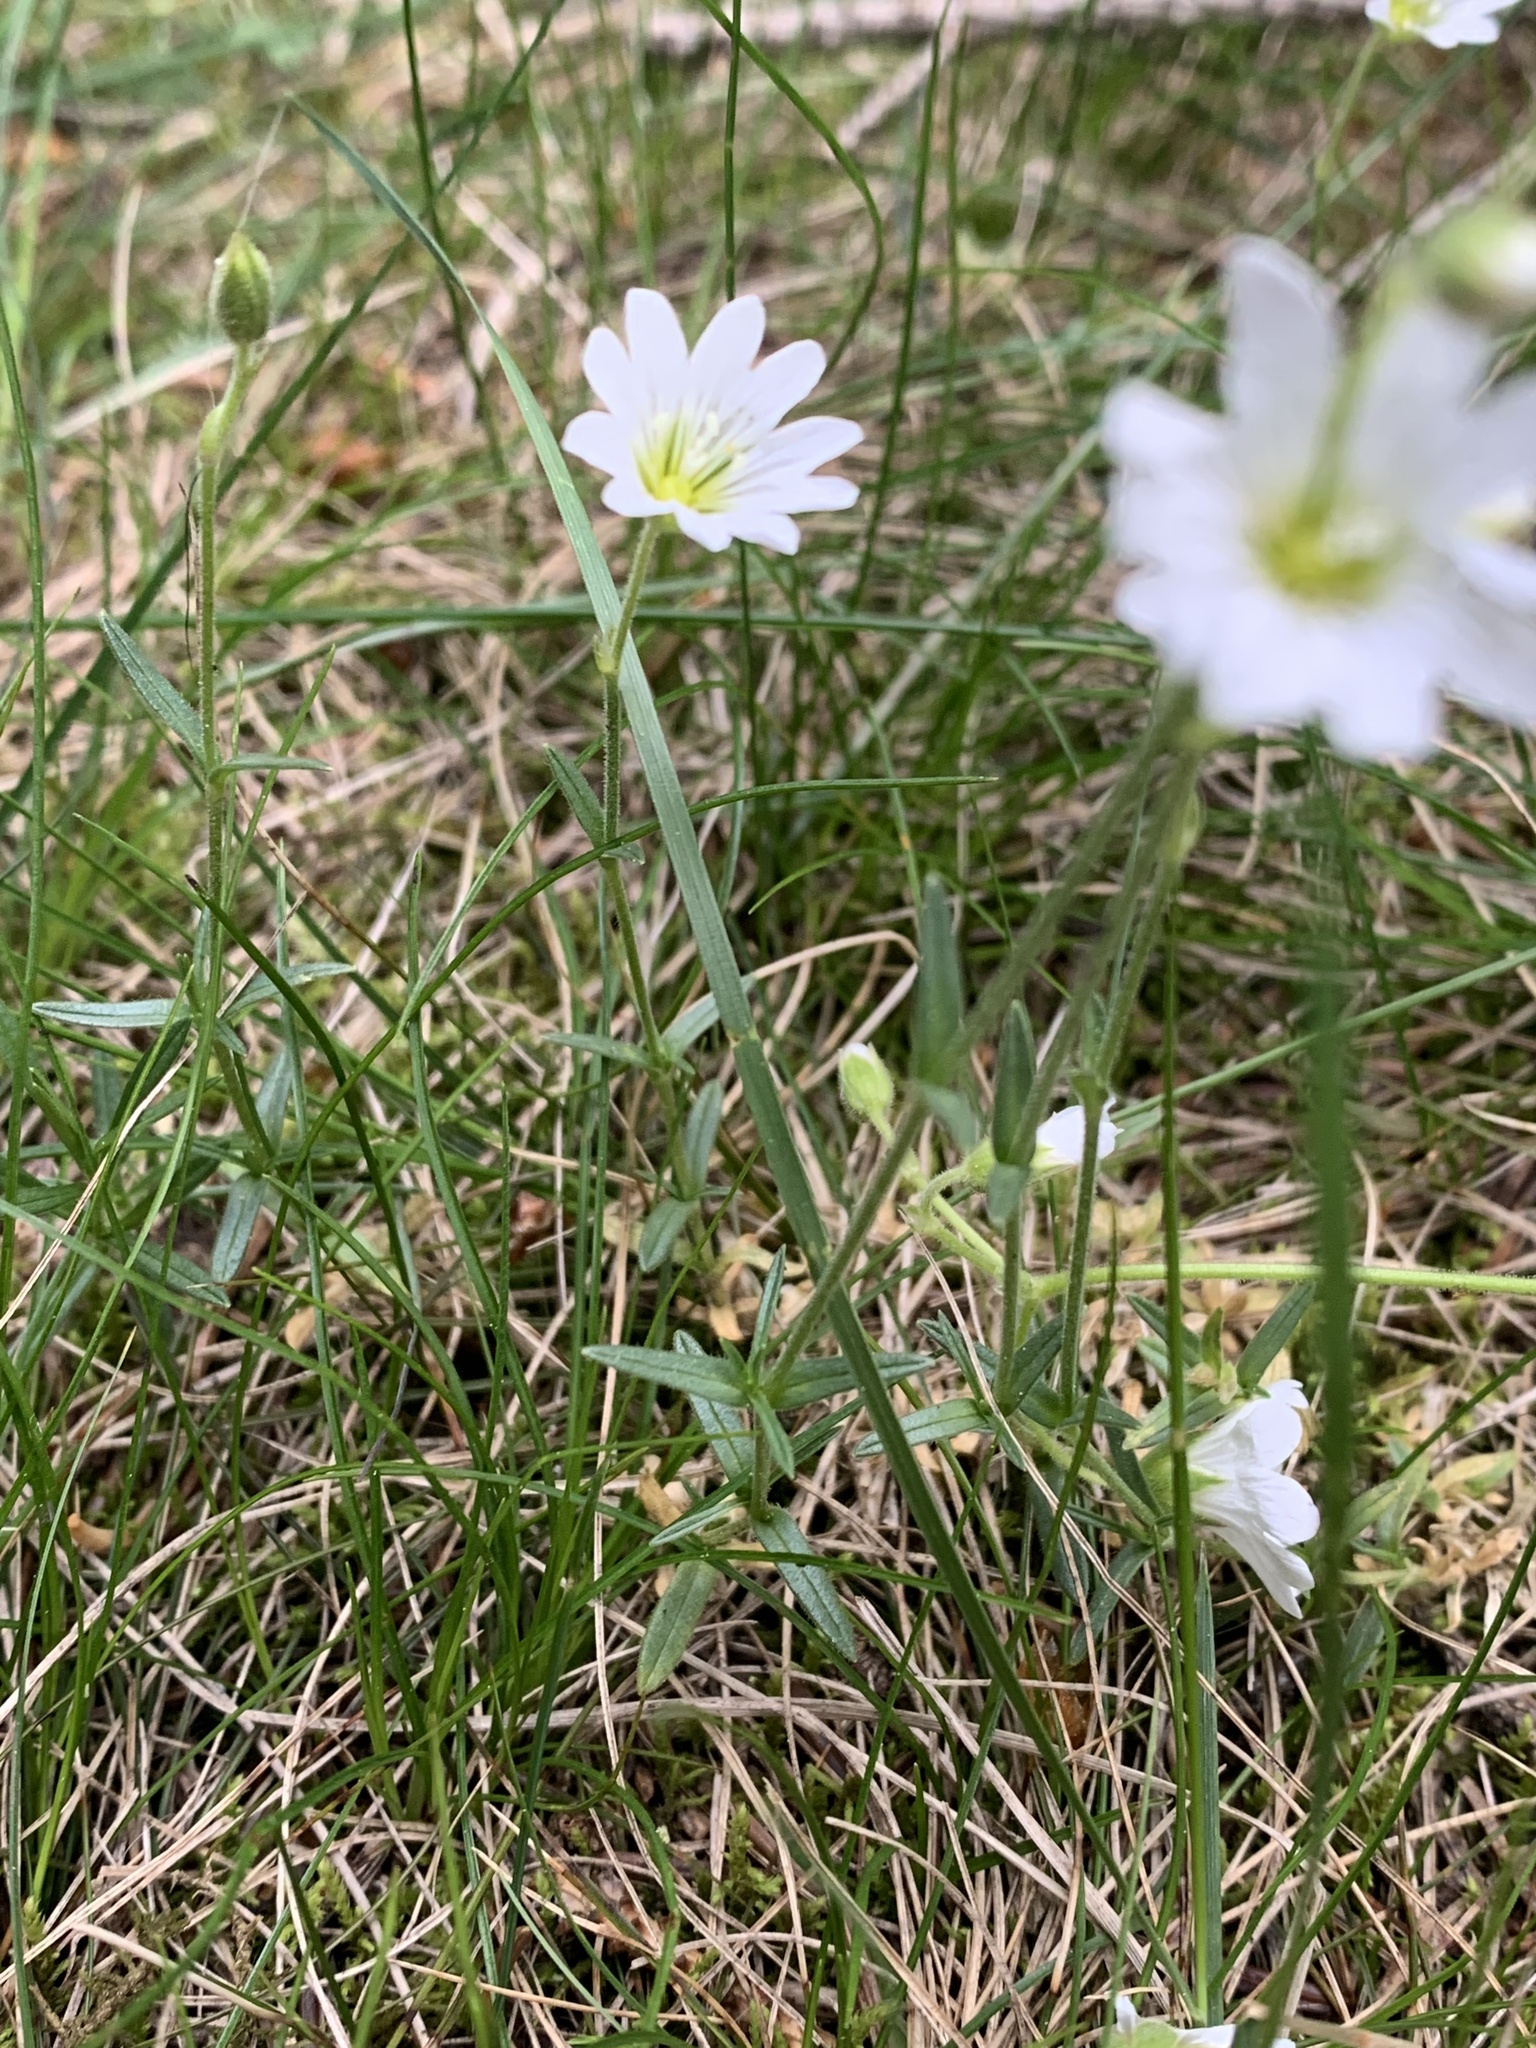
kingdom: Plantae
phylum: Tracheophyta
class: Magnoliopsida
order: Caryophyllales
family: Caryophyllaceae
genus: Cerastium
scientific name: Cerastium arvense
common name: Field mouse-ear
